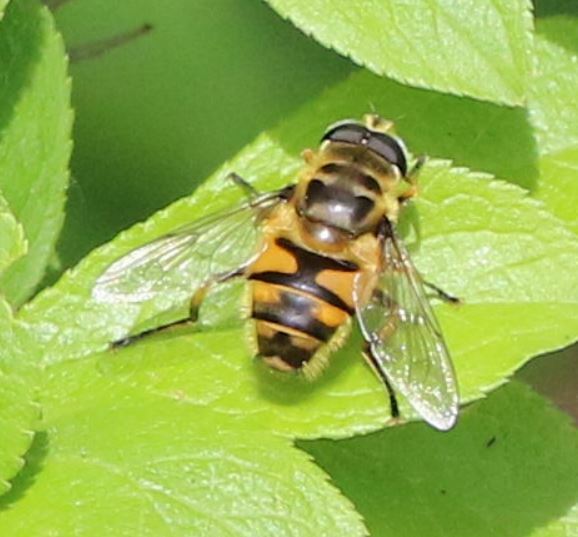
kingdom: Animalia
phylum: Arthropoda
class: Insecta
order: Diptera
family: Syrphidae
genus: Myathropa
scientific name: Myathropa florea
